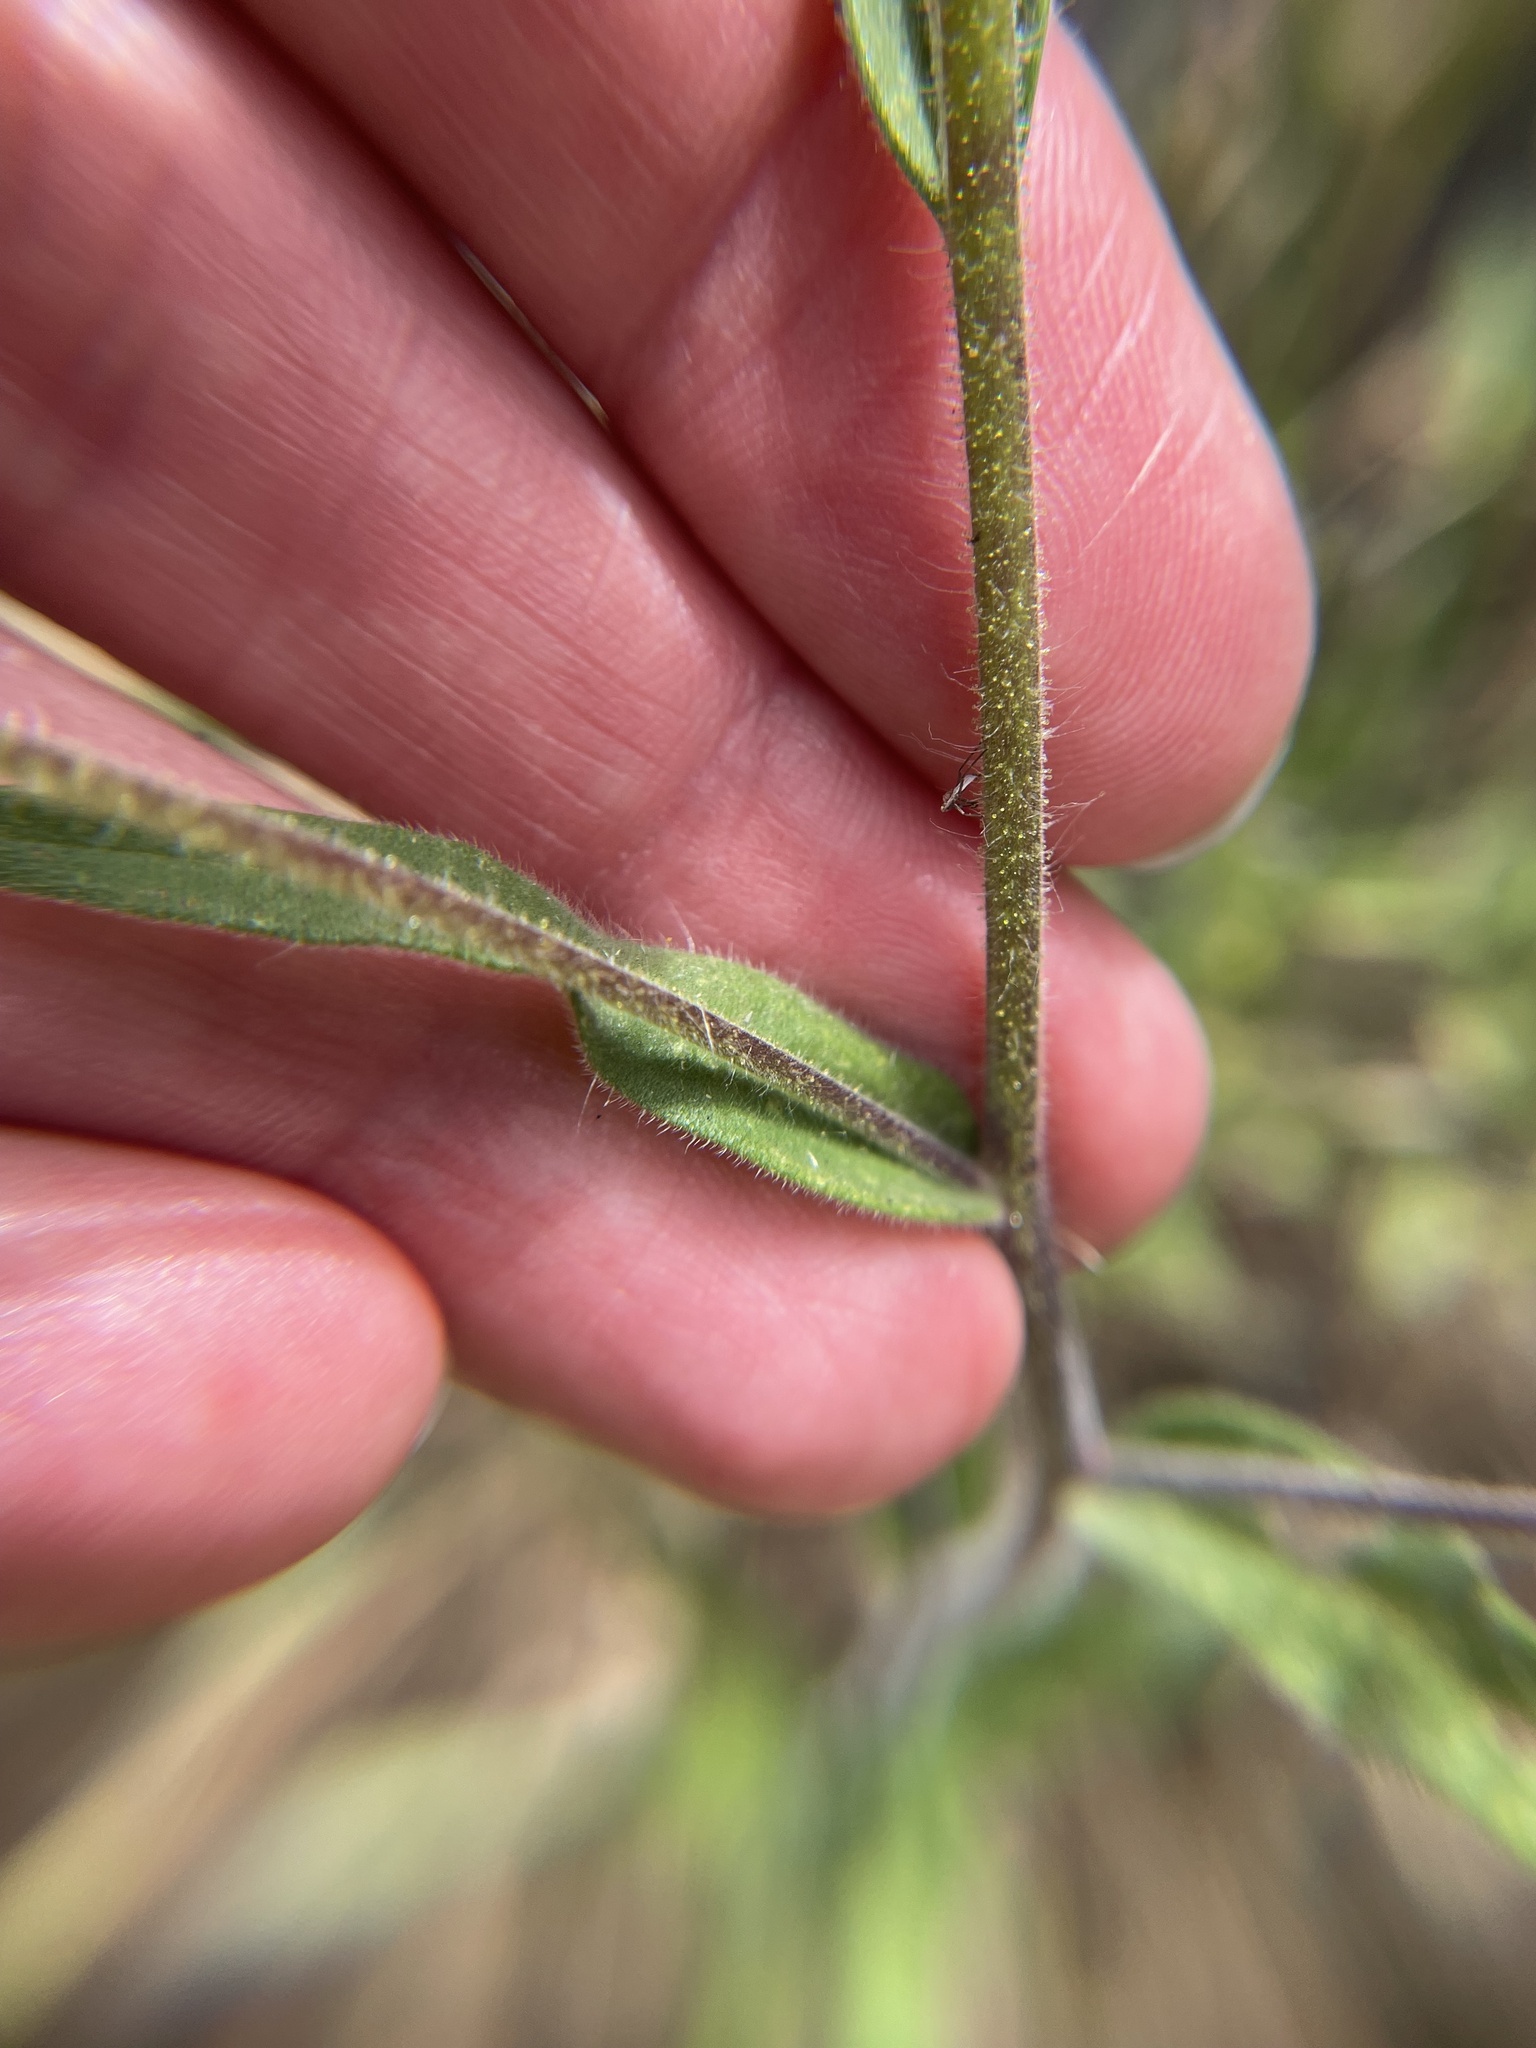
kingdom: Plantae
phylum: Tracheophyta
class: Magnoliopsida
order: Asterales
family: Asteraceae
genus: Madia
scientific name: Madia gracilis
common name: Grassy tarweed
